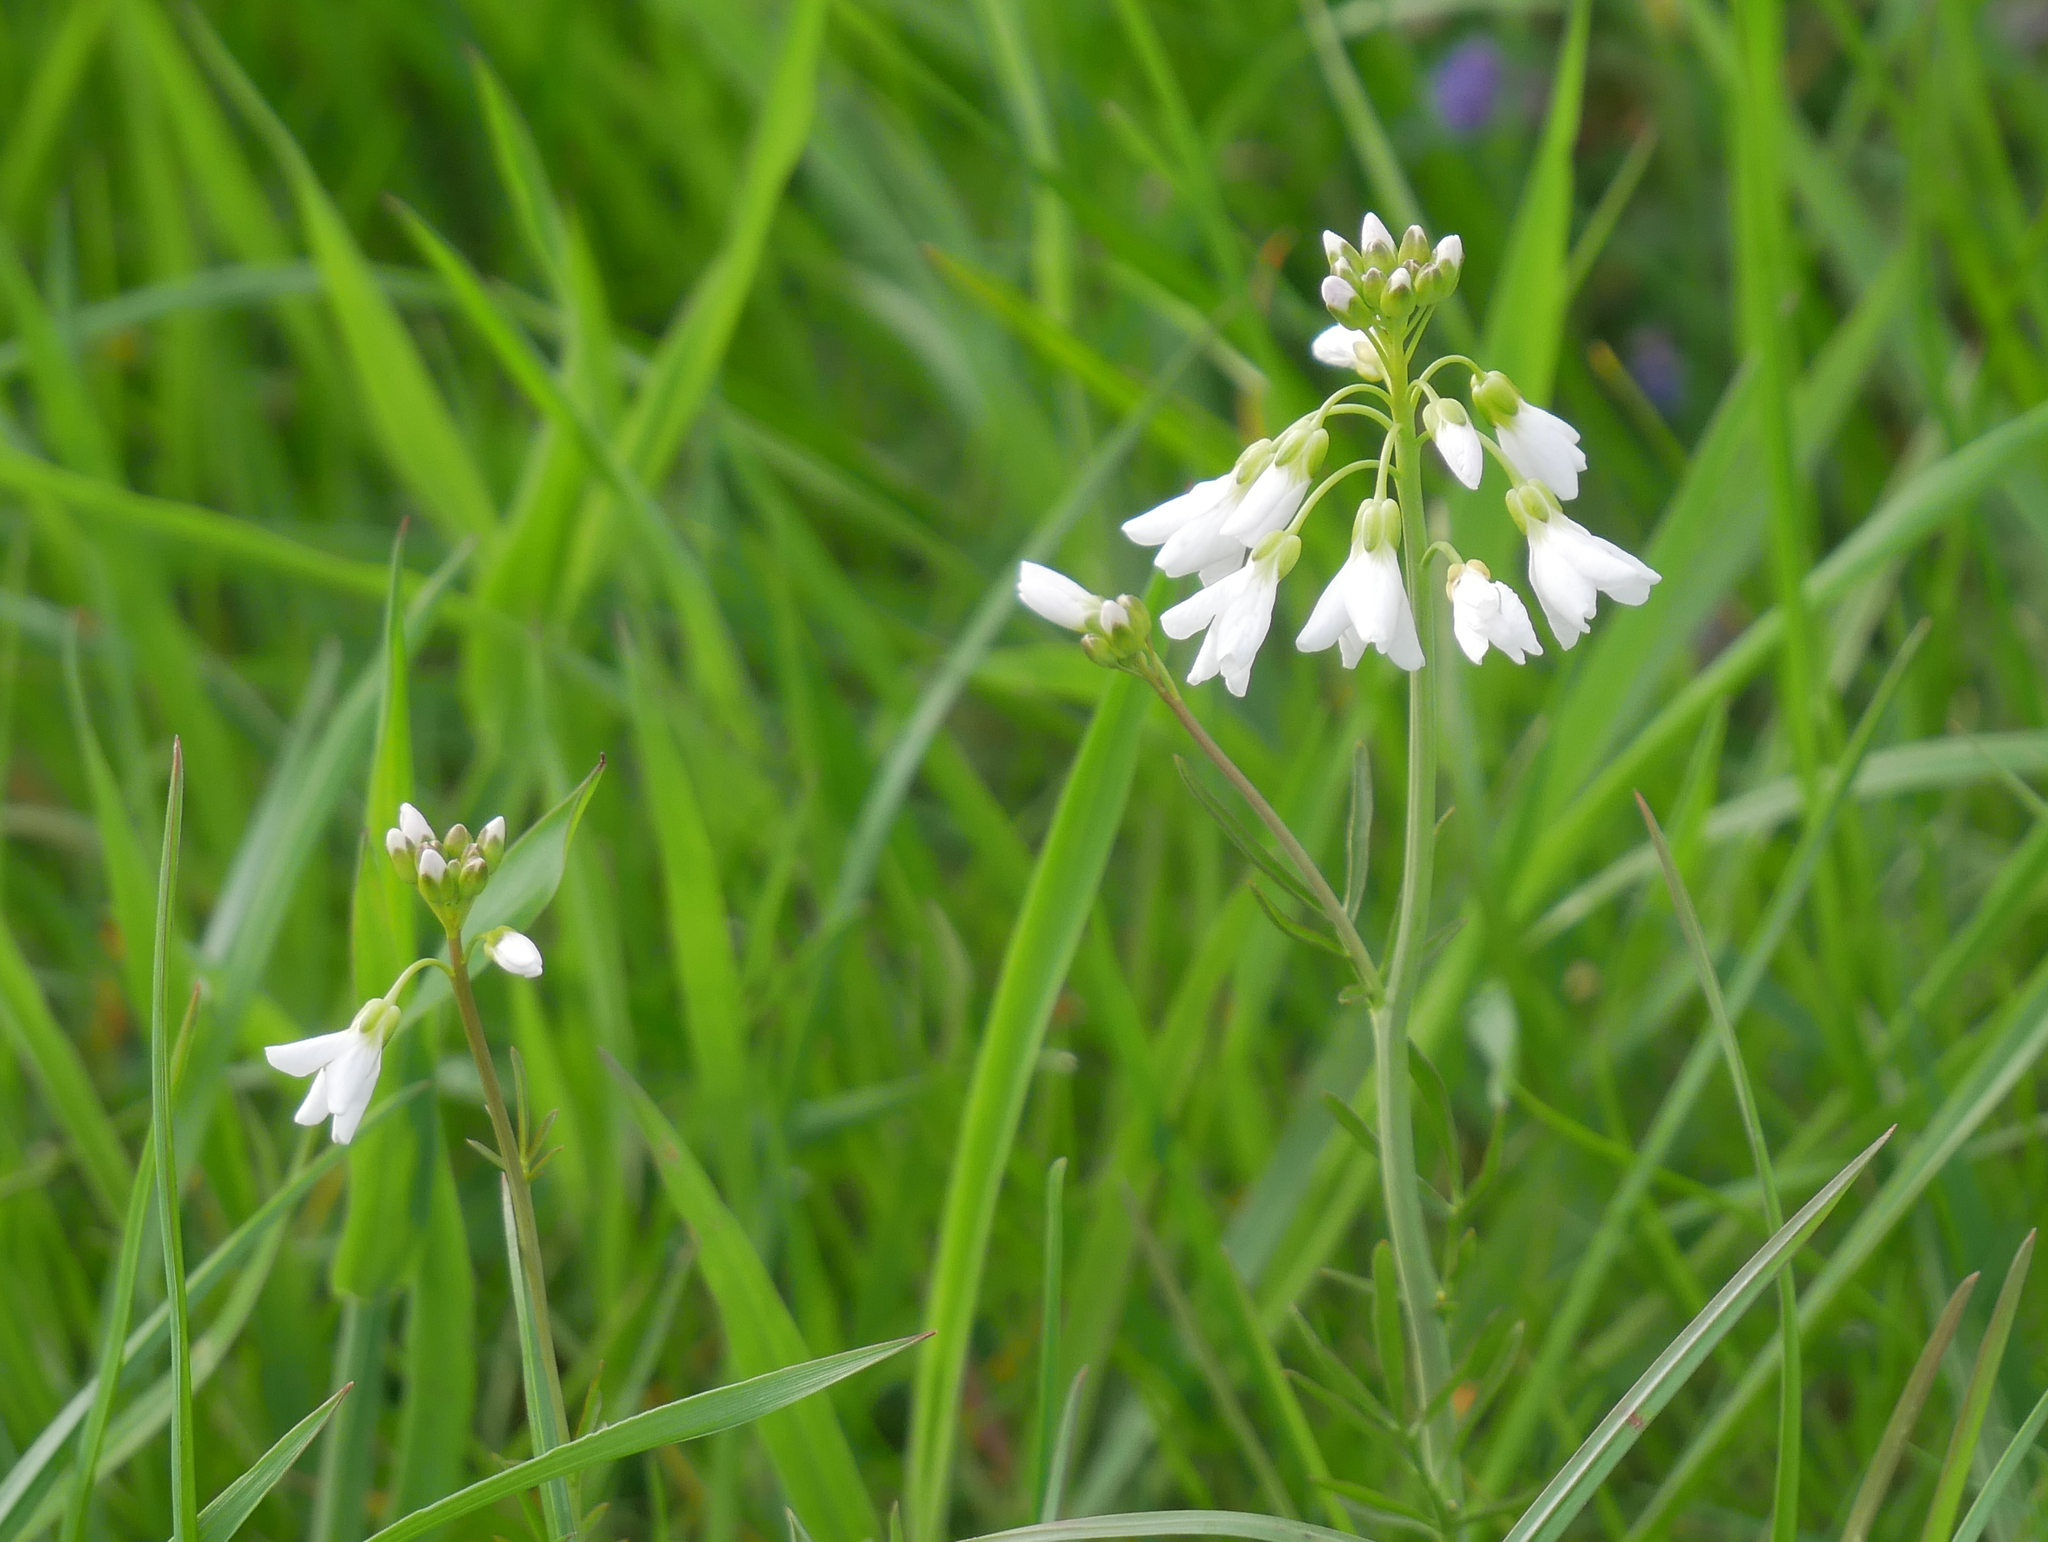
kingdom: Plantae
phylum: Tracheophyta
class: Magnoliopsida
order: Brassicales
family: Brassicaceae
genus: Cardamine
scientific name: Cardamine pratensis
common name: Cuckoo flower
